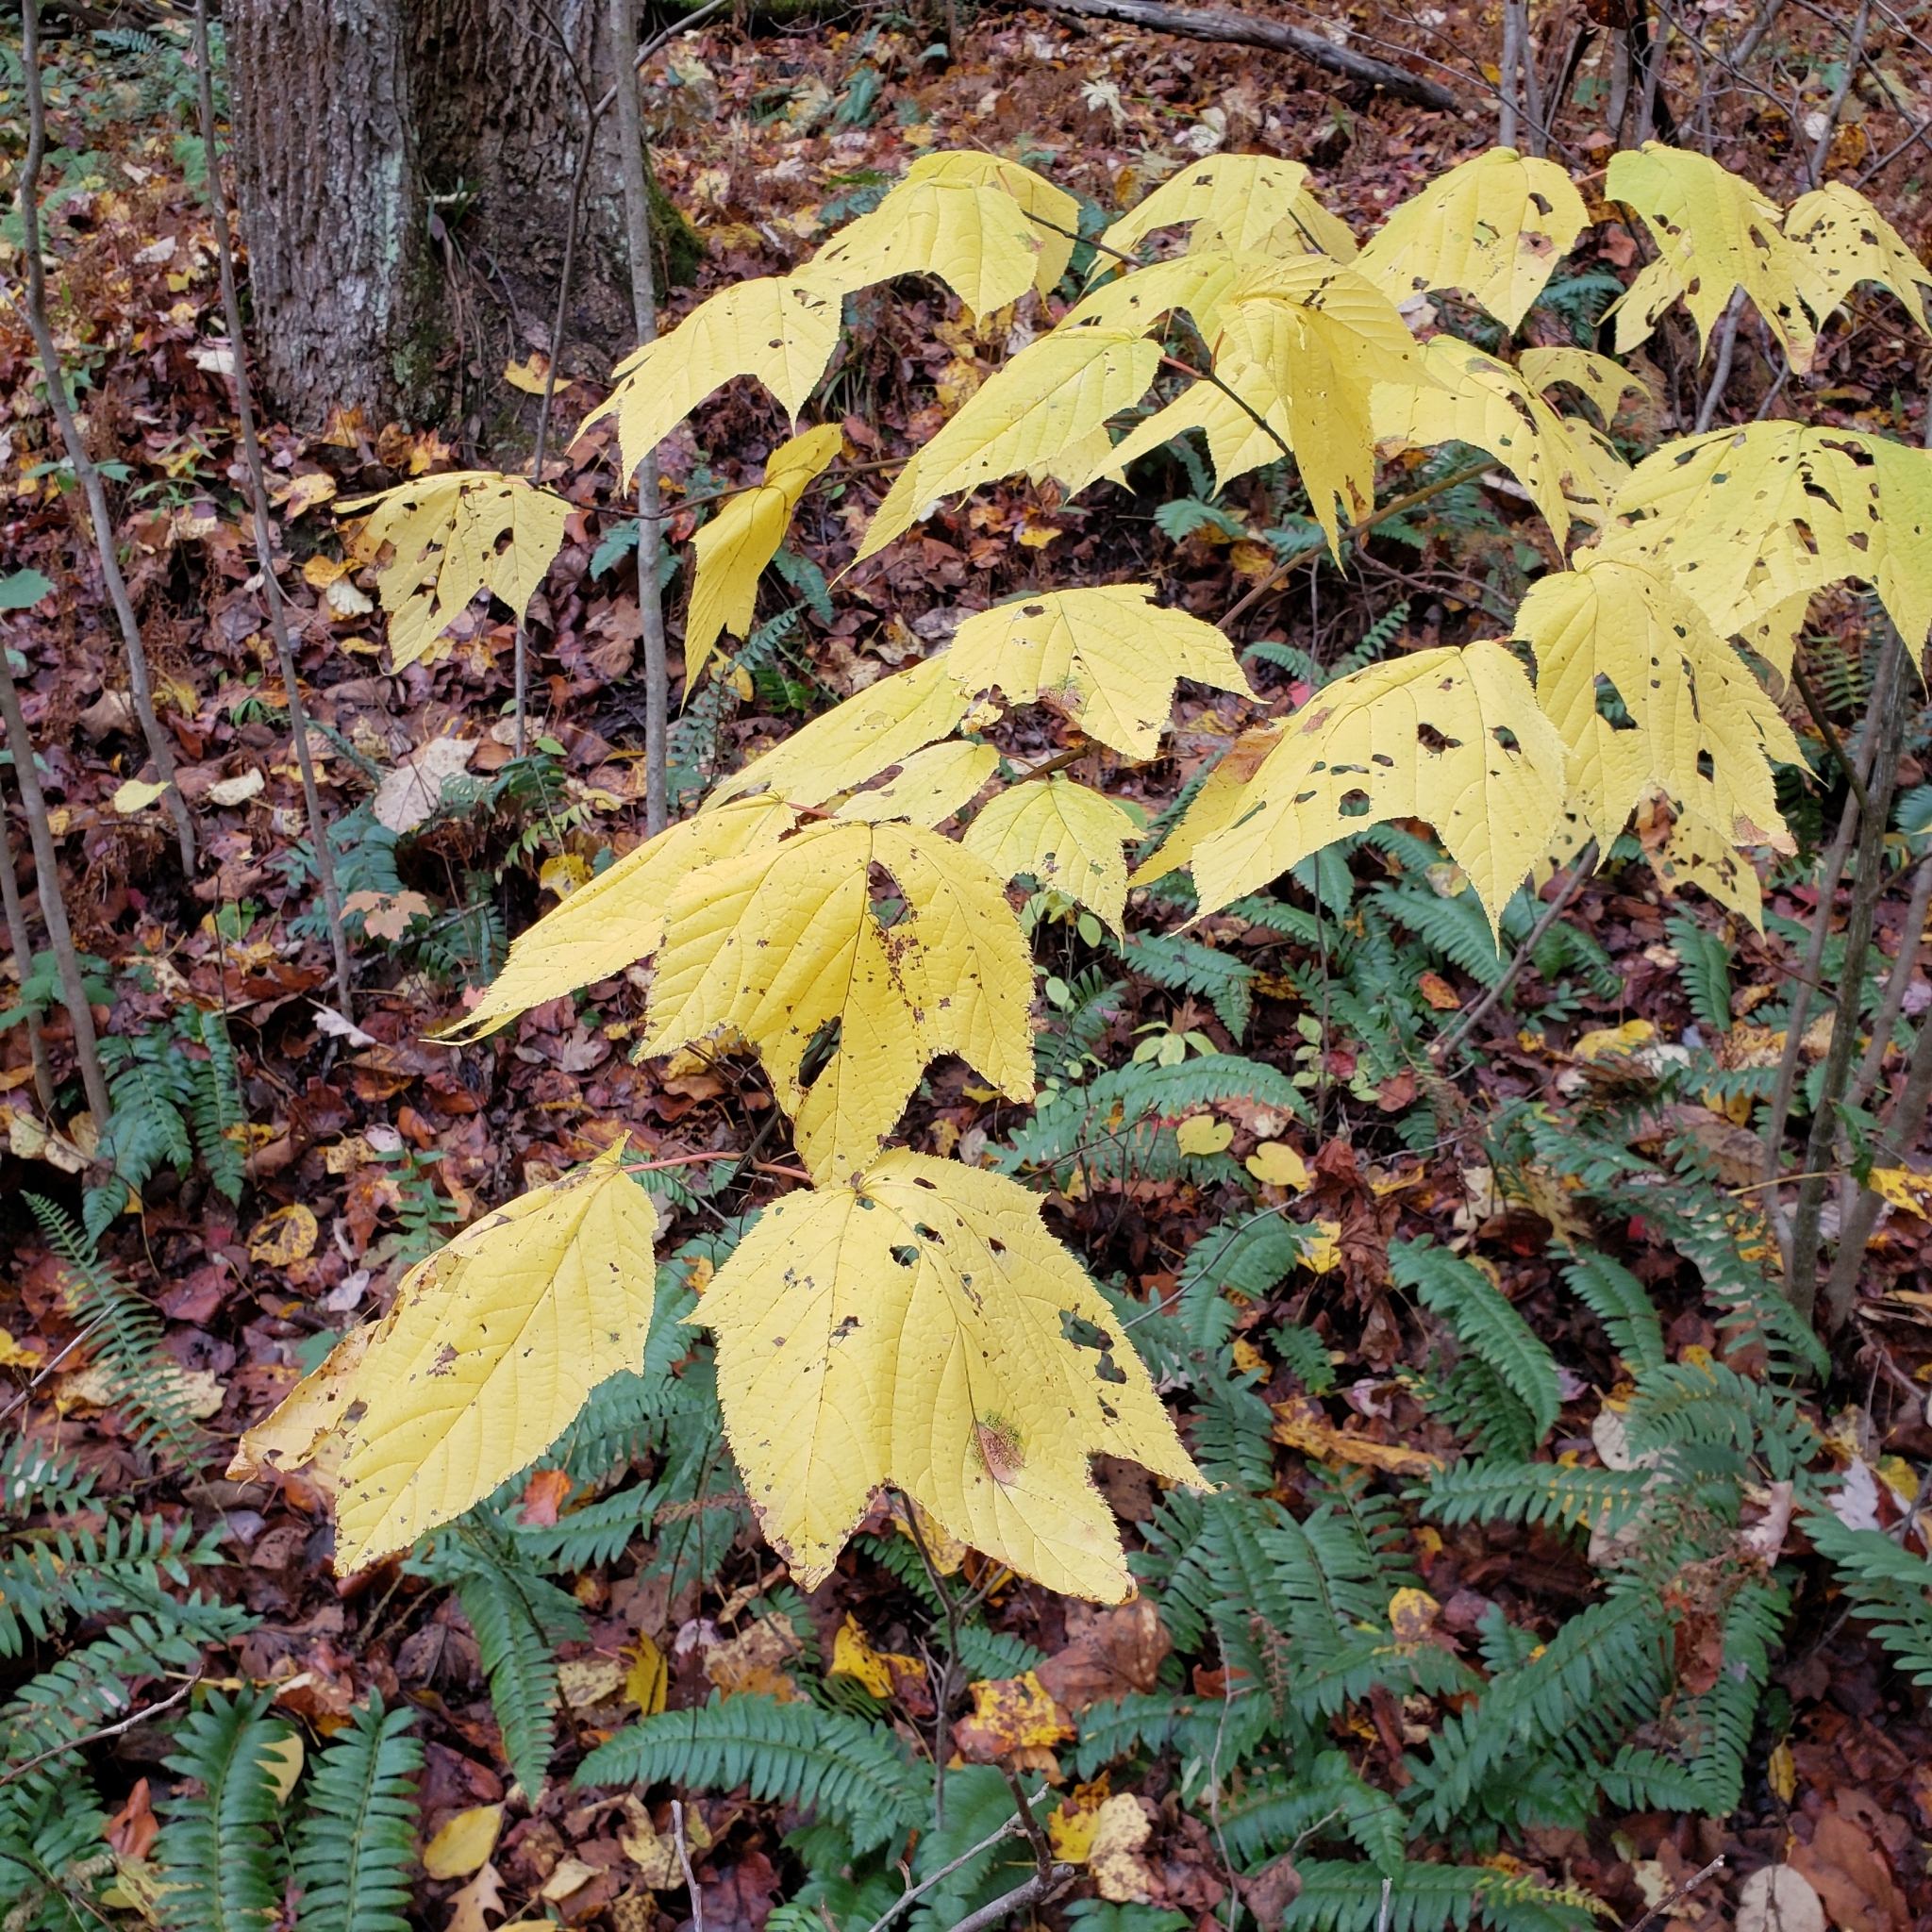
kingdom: Plantae
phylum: Tracheophyta
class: Magnoliopsida
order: Sapindales
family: Sapindaceae
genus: Acer
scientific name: Acer pensylvanicum
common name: Moosewood
